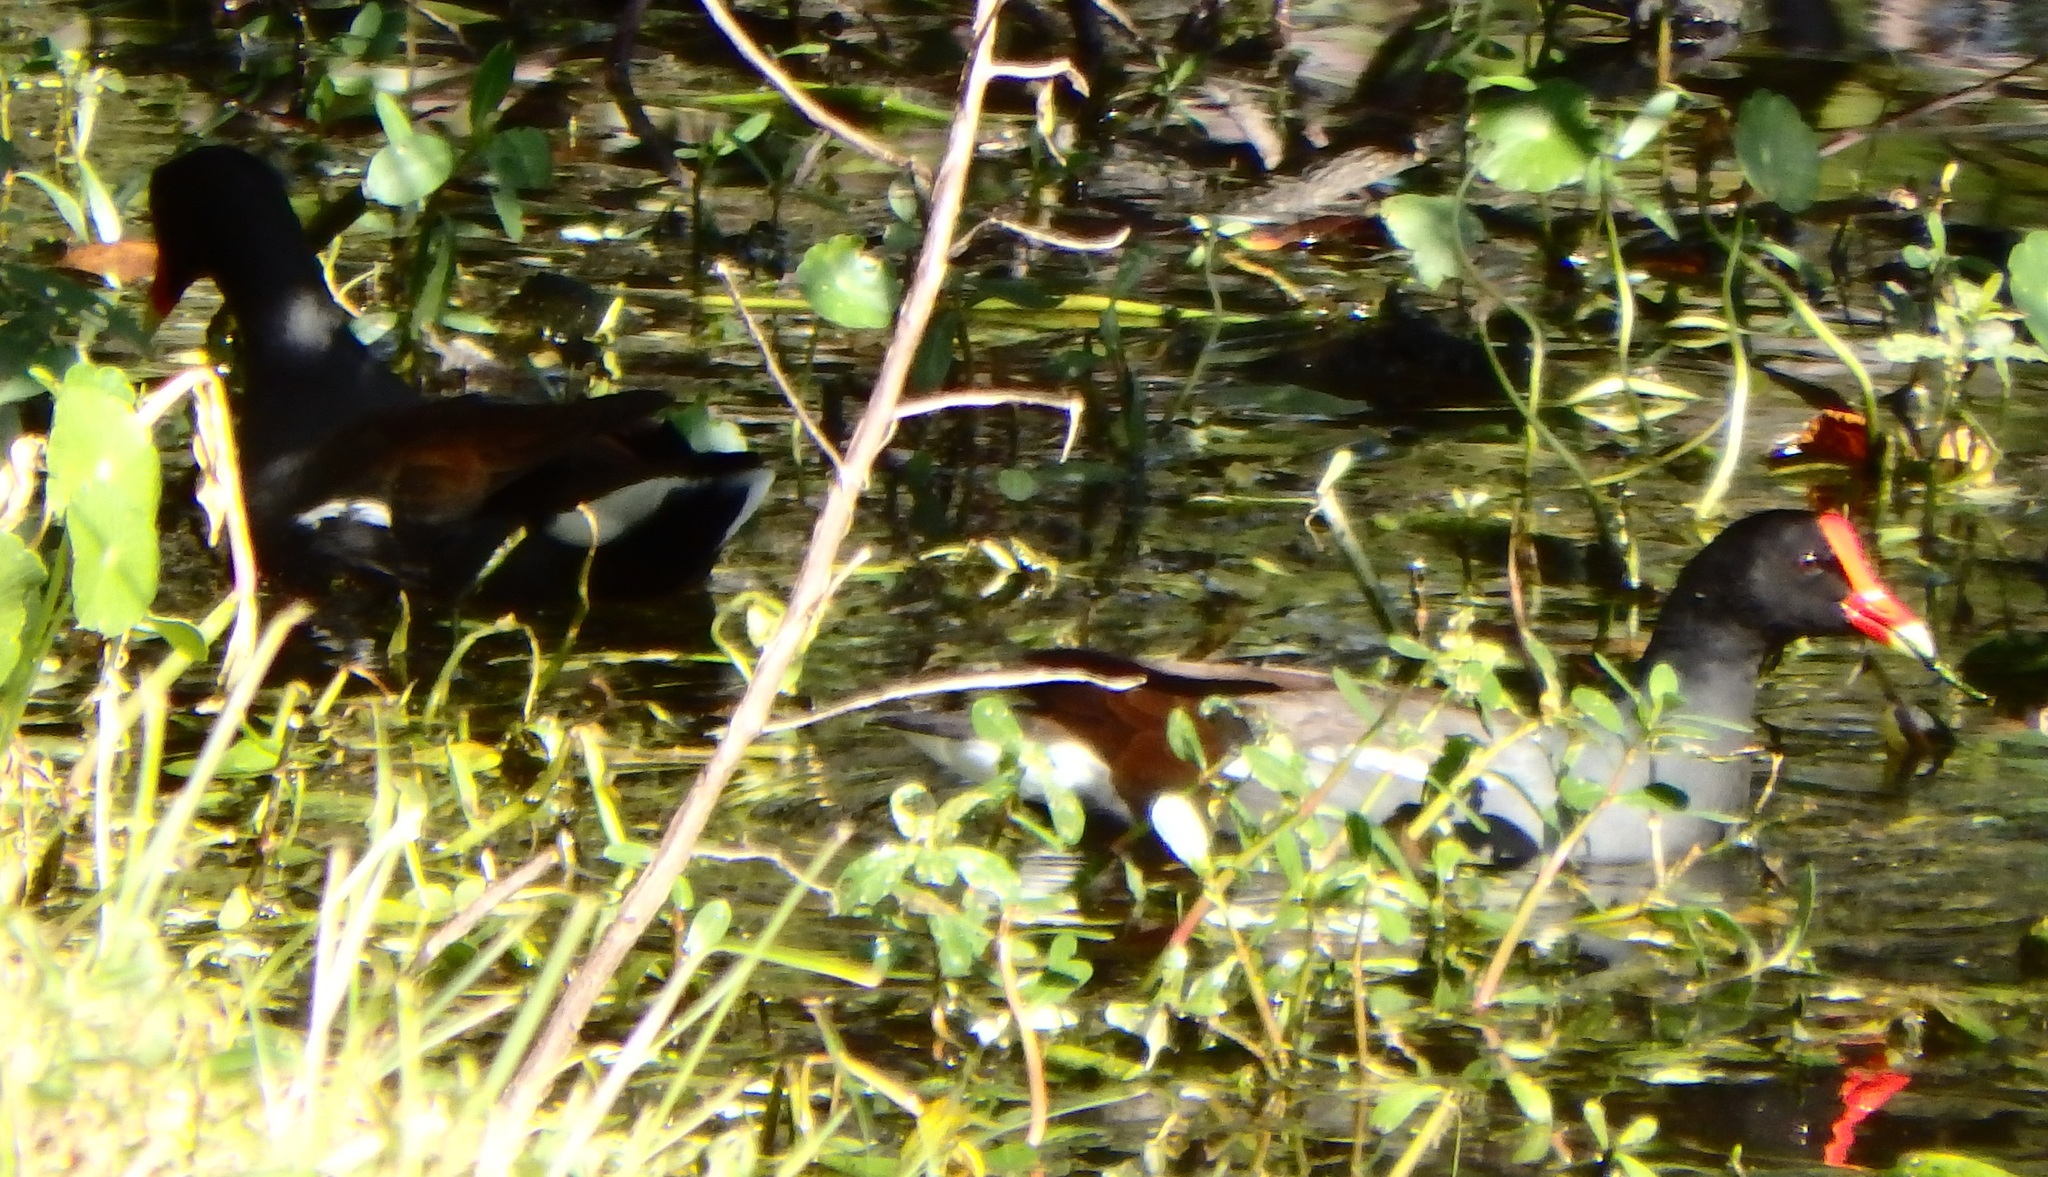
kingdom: Animalia
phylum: Chordata
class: Aves
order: Gruiformes
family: Rallidae
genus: Gallinula
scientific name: Gallinula chloropus
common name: Common moorhen
